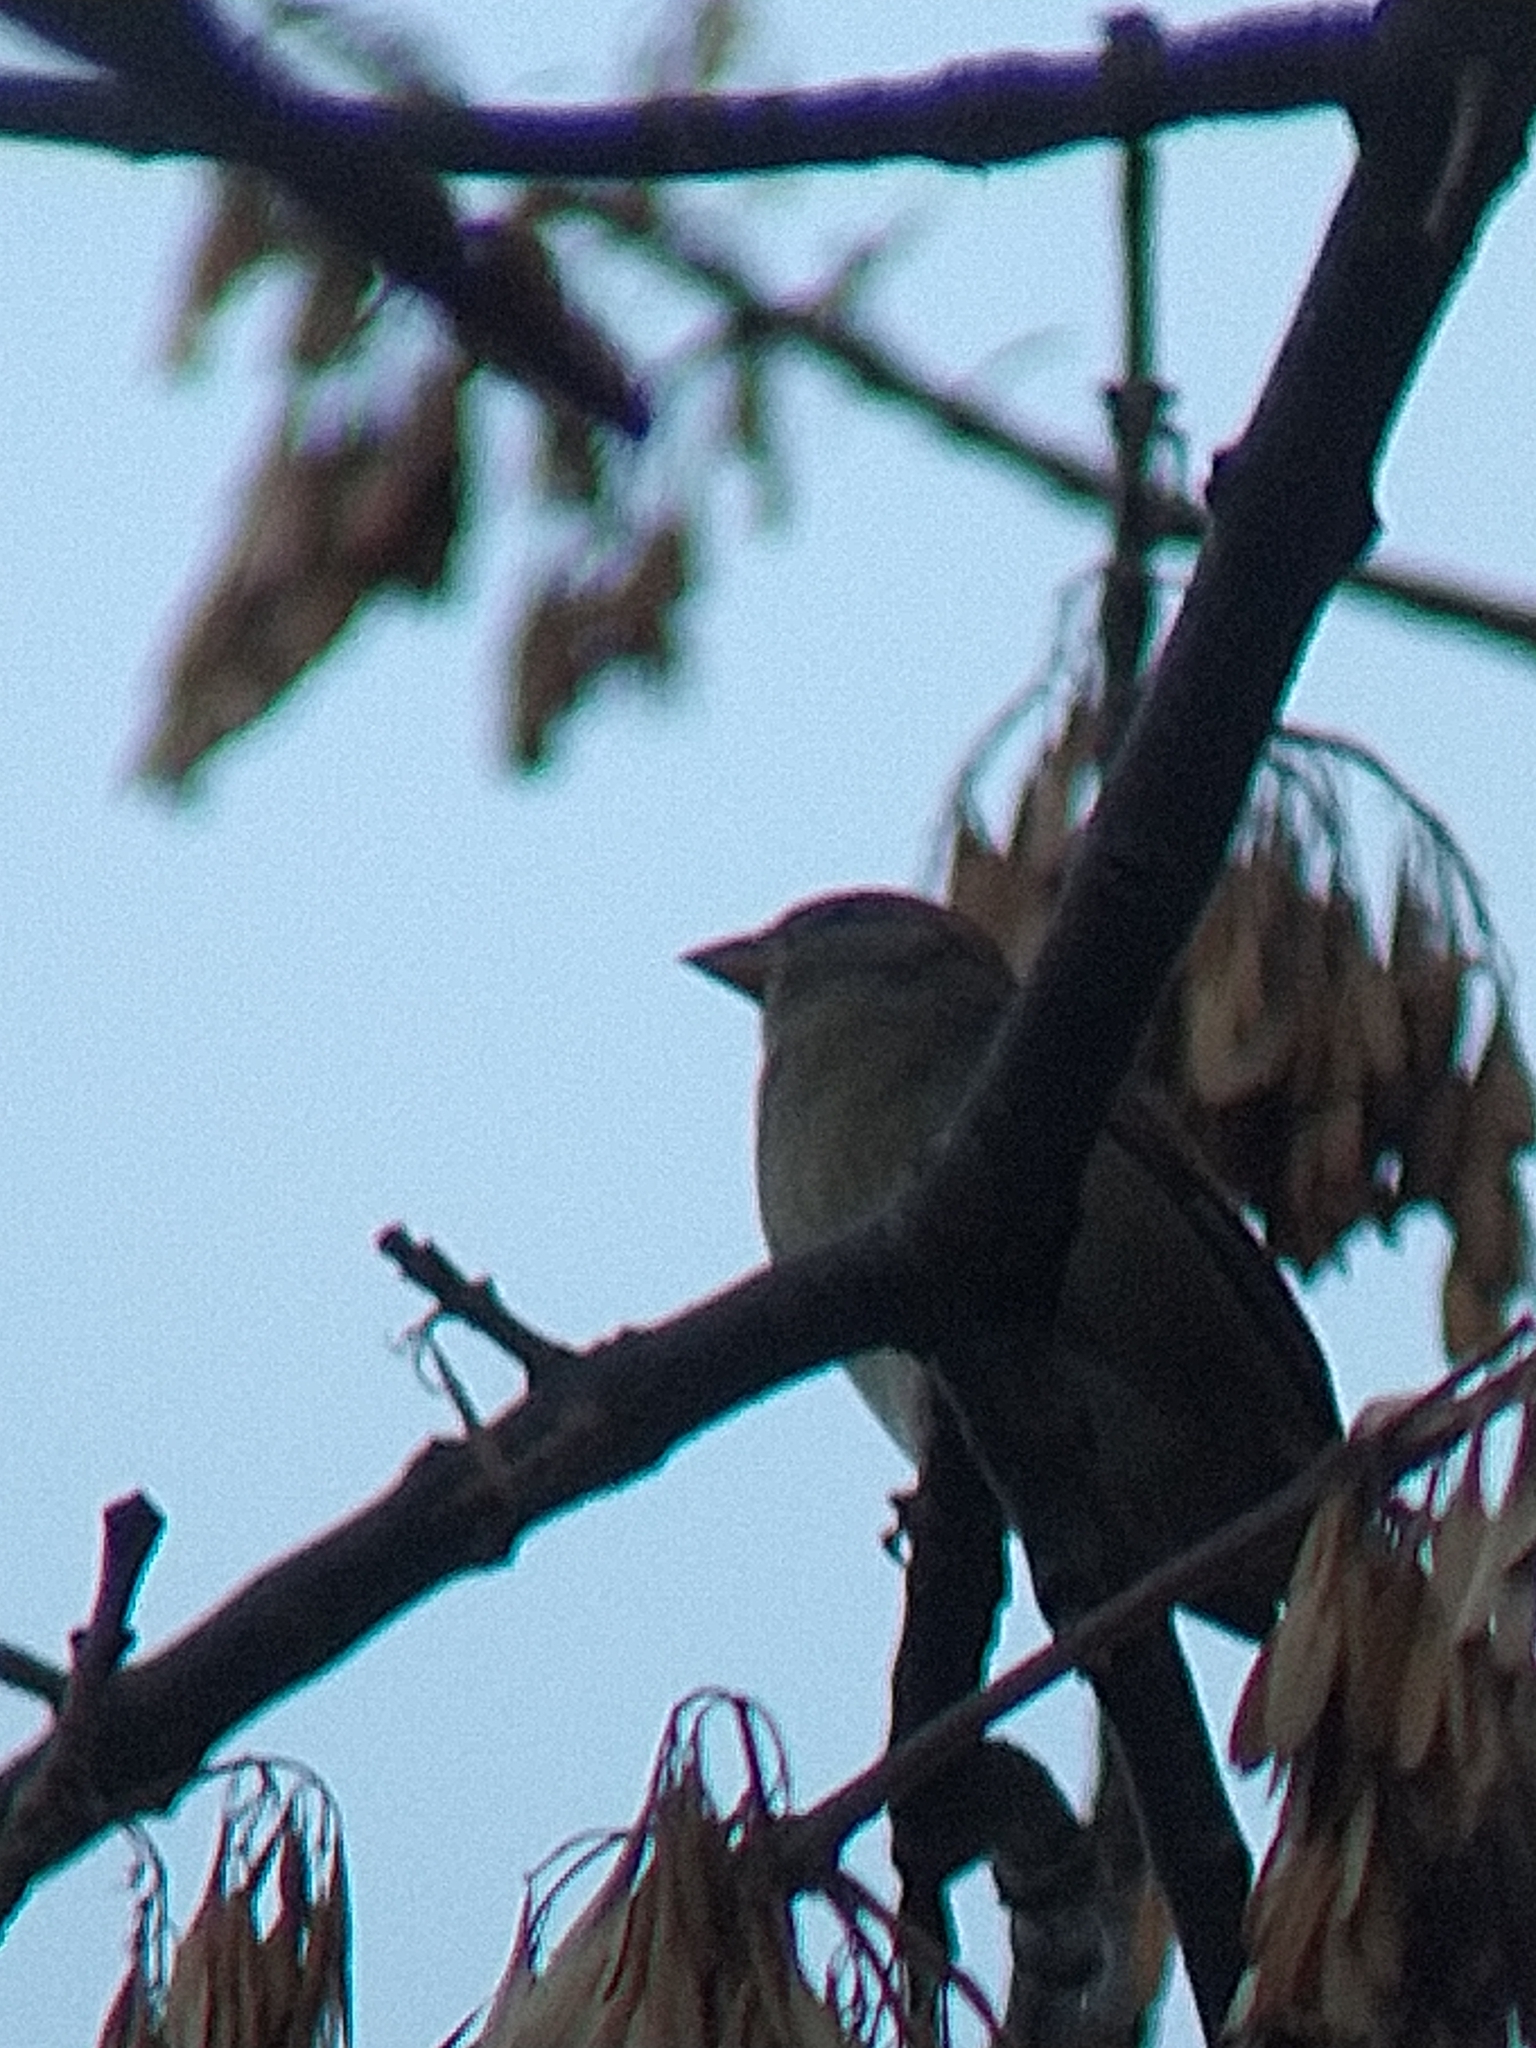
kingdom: Animalia
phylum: Chordata
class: Aves
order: Passeriformes
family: Passeridae
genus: Passer
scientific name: Passer domesticus
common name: House sparrow
